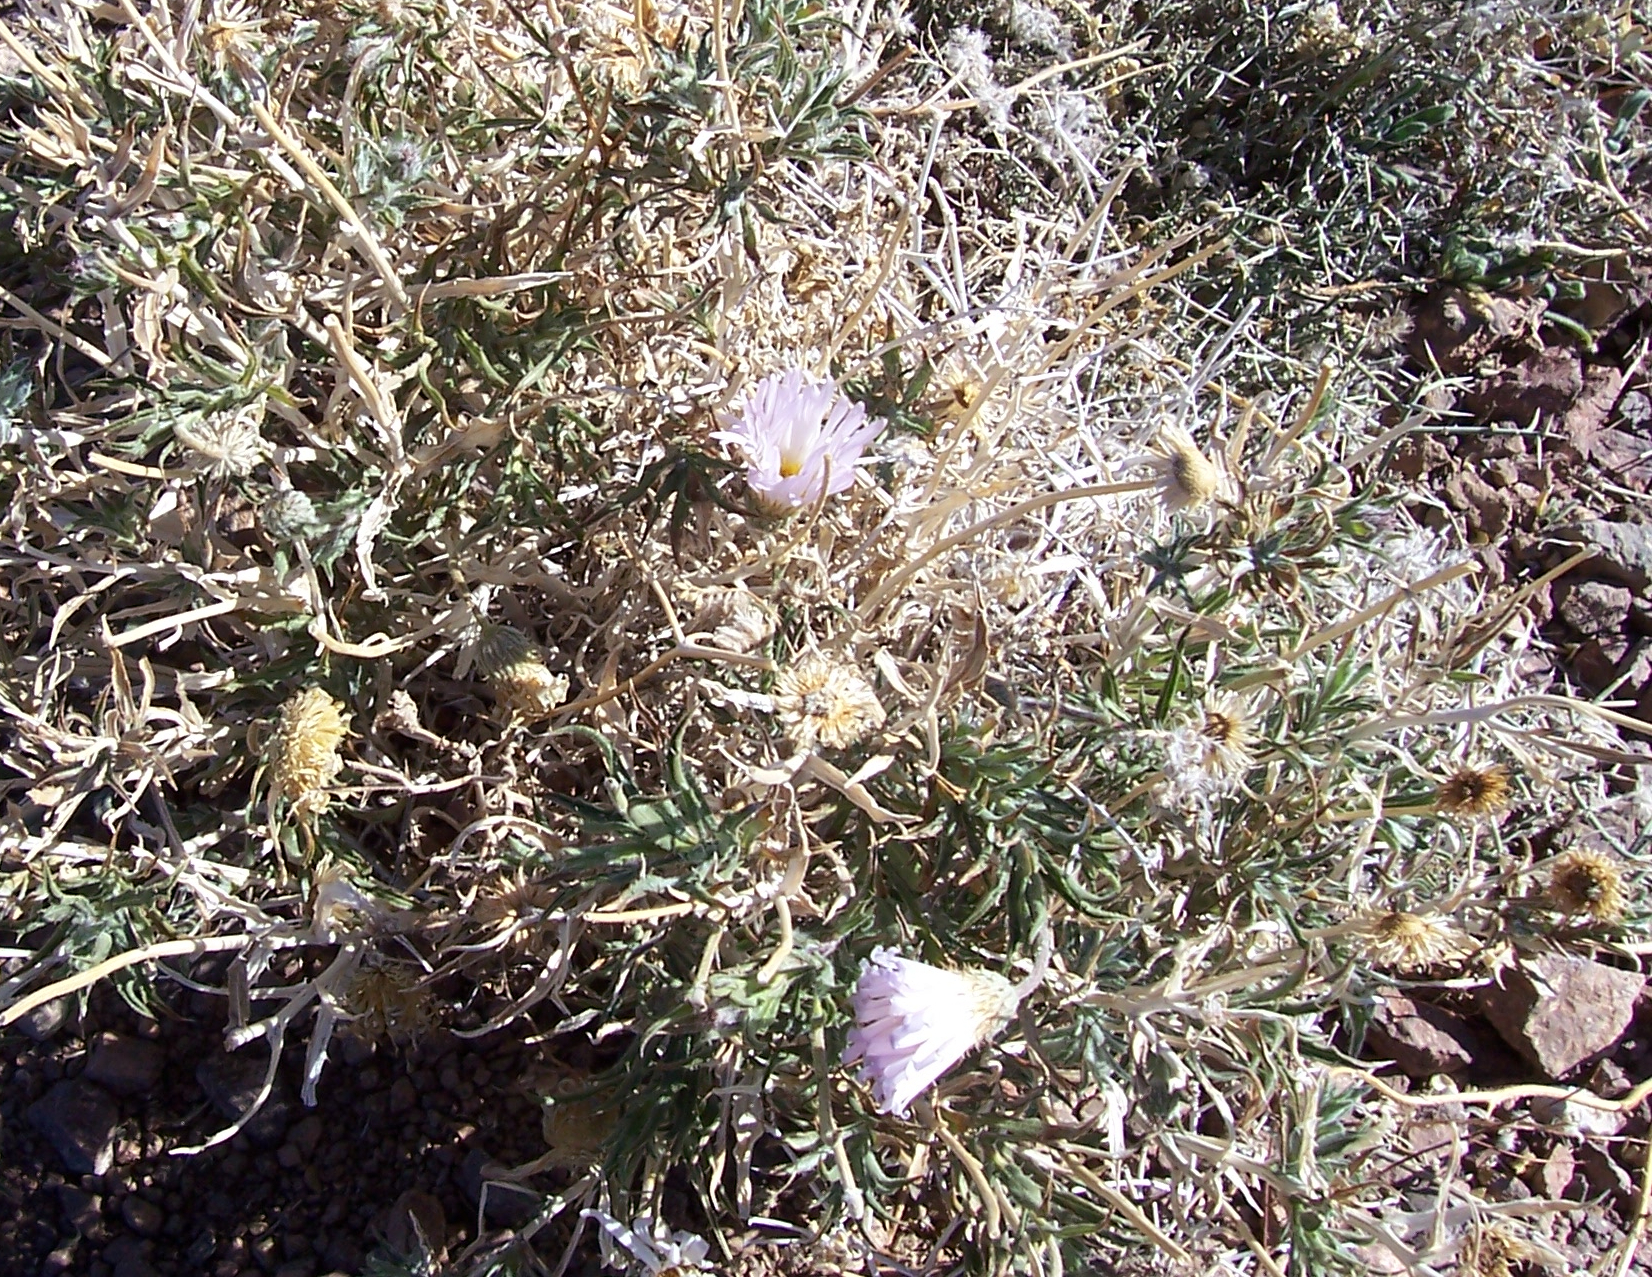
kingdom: Plantae
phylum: Tracheophyta
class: Magnoliopsida
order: Asterales
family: Asteraceae
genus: Xylorhiza
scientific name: Xylorhiza tortifolia
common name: Hurt-leaf woody-aster
